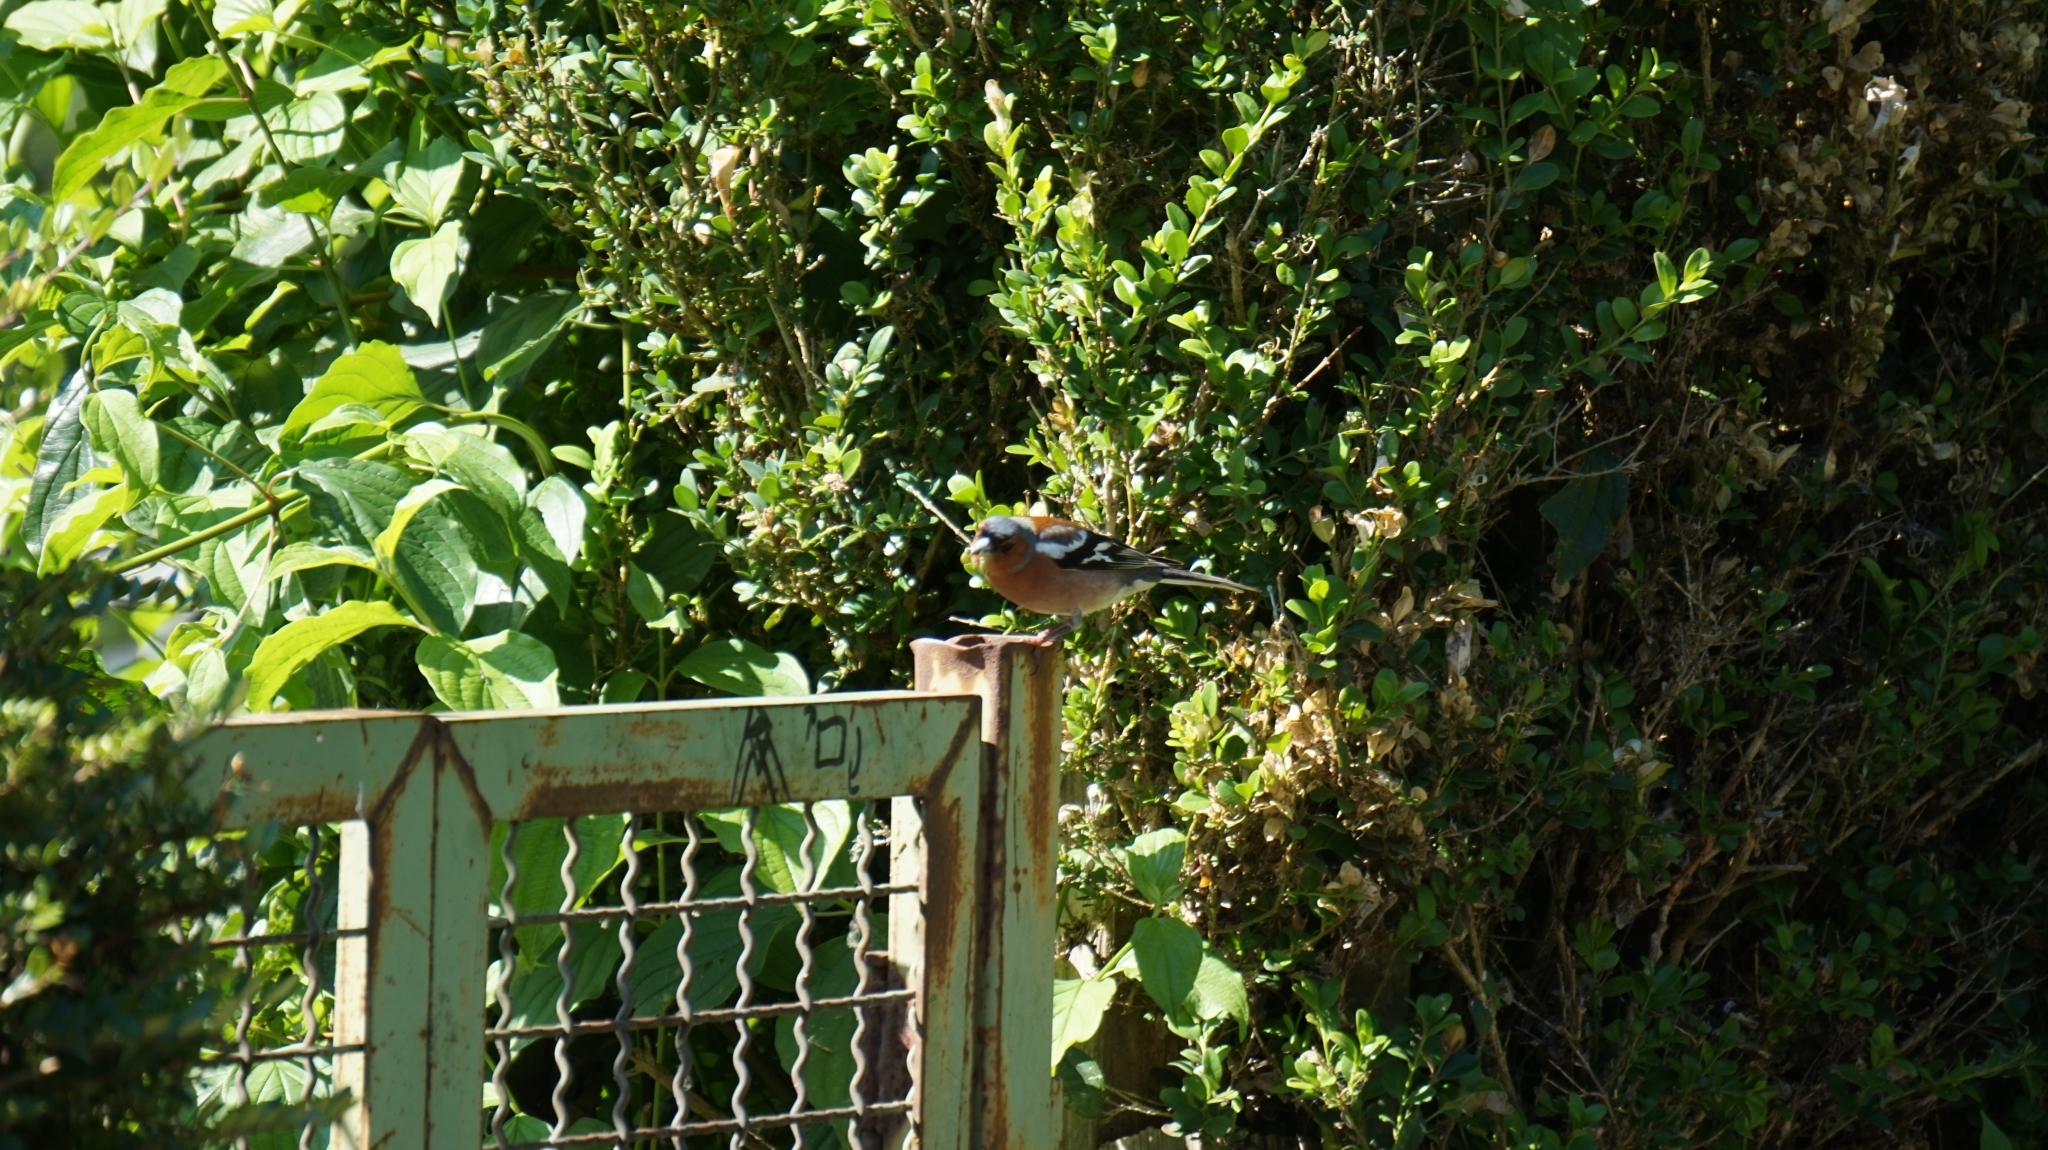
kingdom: Animalia
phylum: Chordata
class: Aves
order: Passeriformes
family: Fringillidae
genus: Fringilla
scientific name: Fringilla coelebs
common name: Common chaffinch
